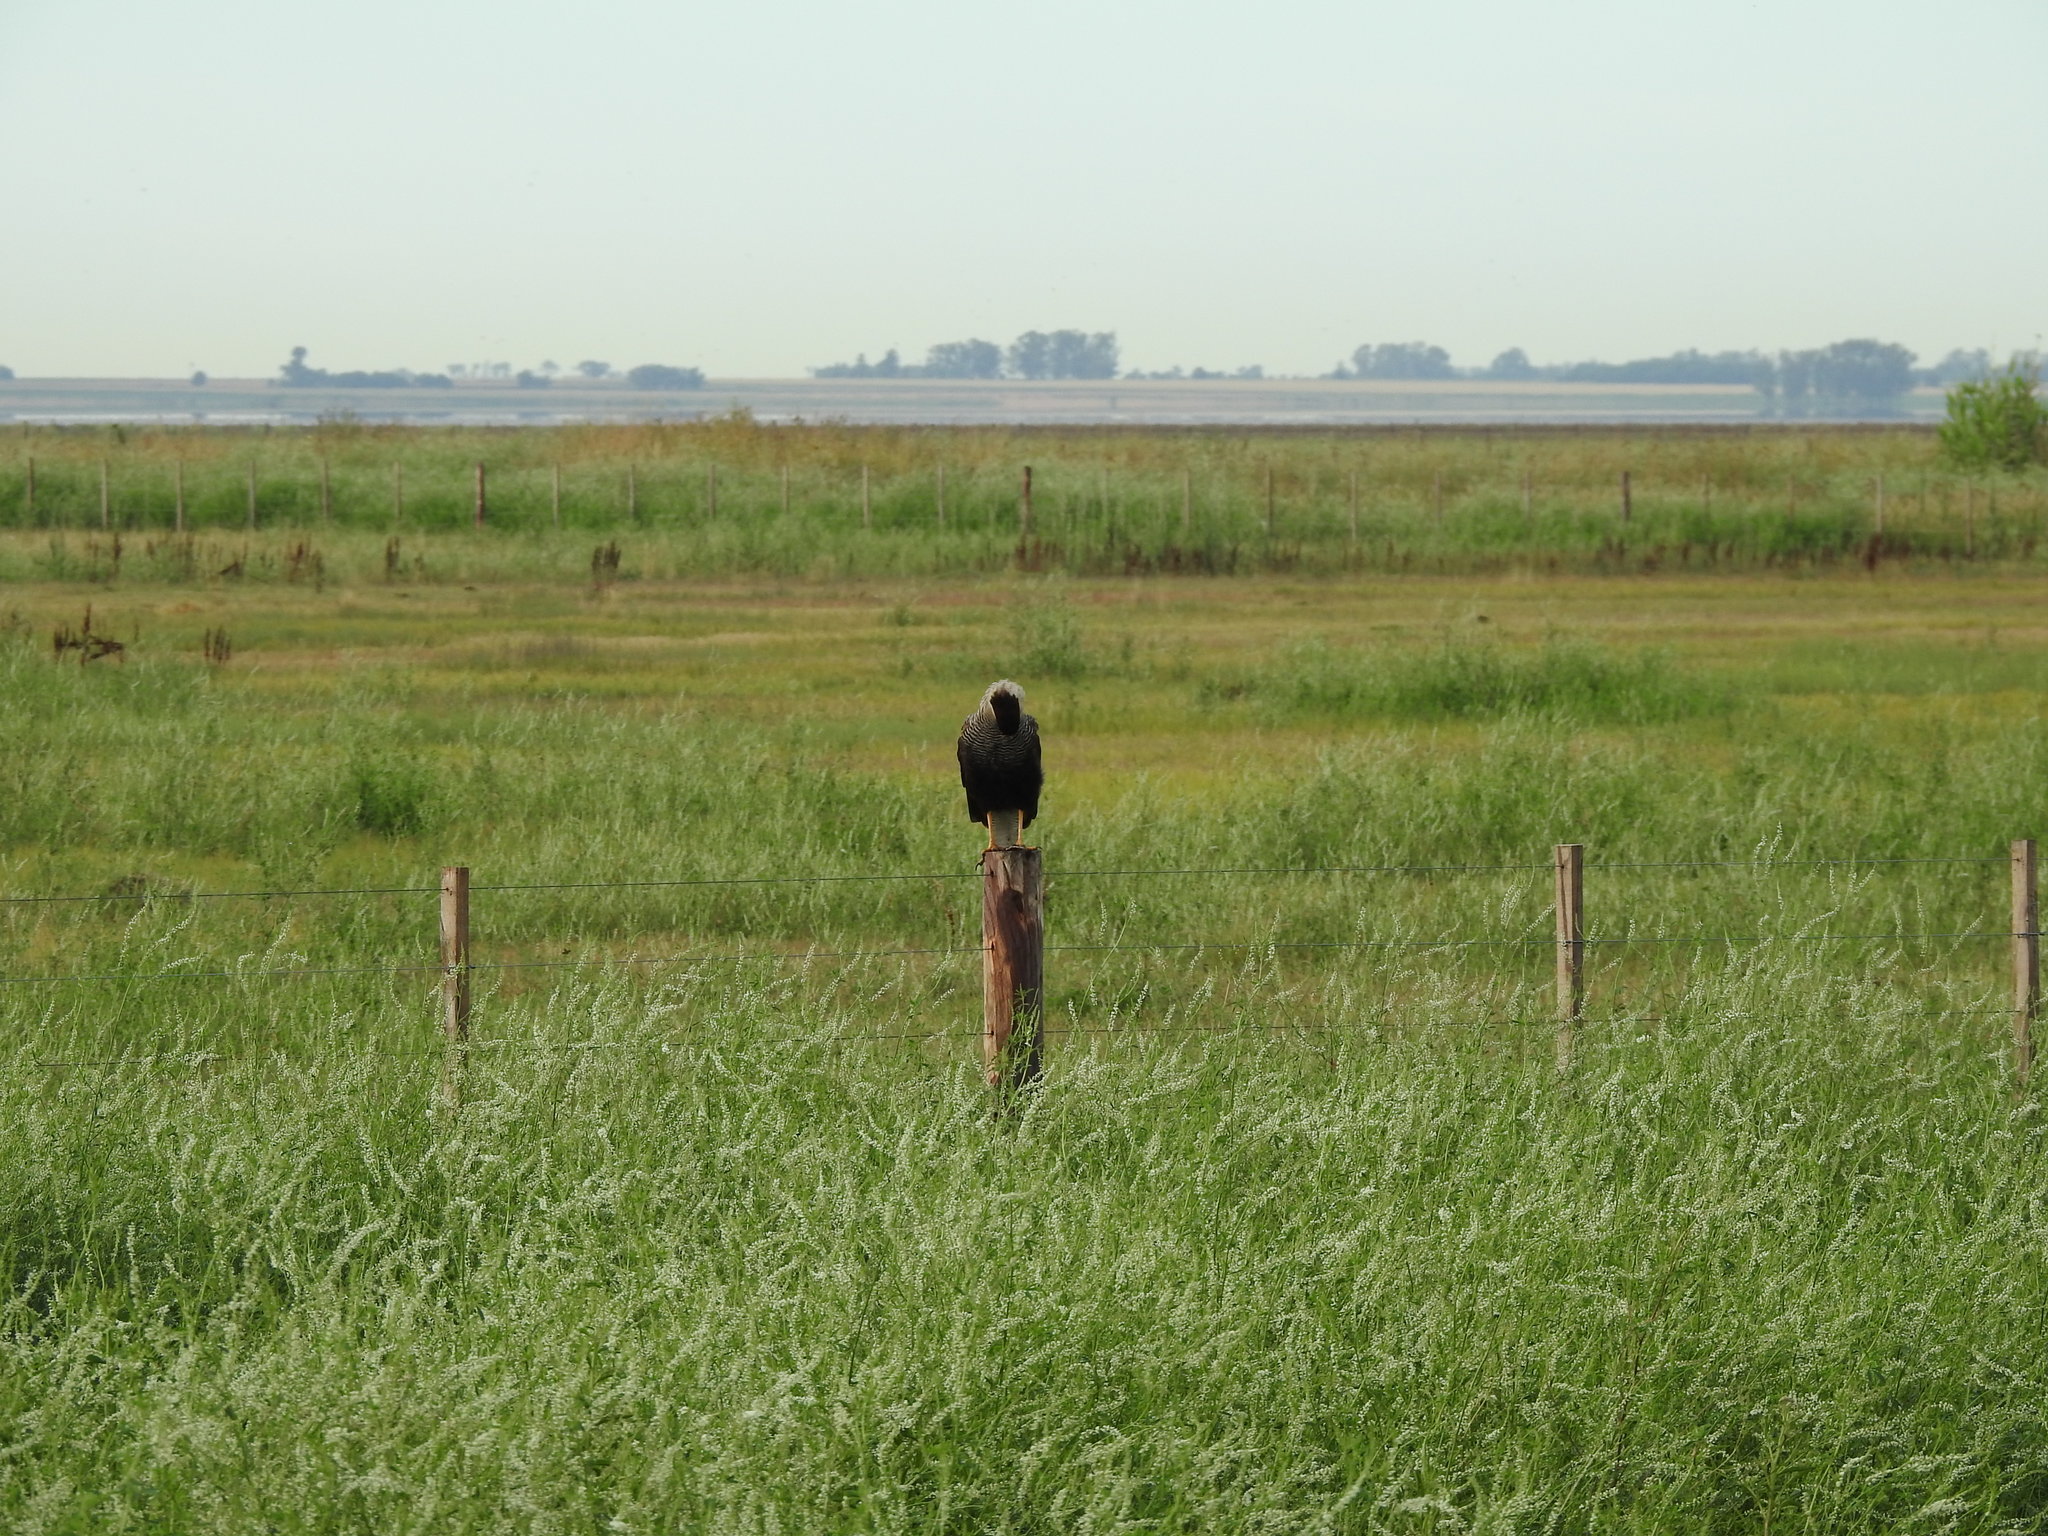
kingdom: Animalia
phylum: Chordata
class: Aves
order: Falconiformes
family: Falconidae
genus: Caracara
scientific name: Caracara plancus
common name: Southern caracara
